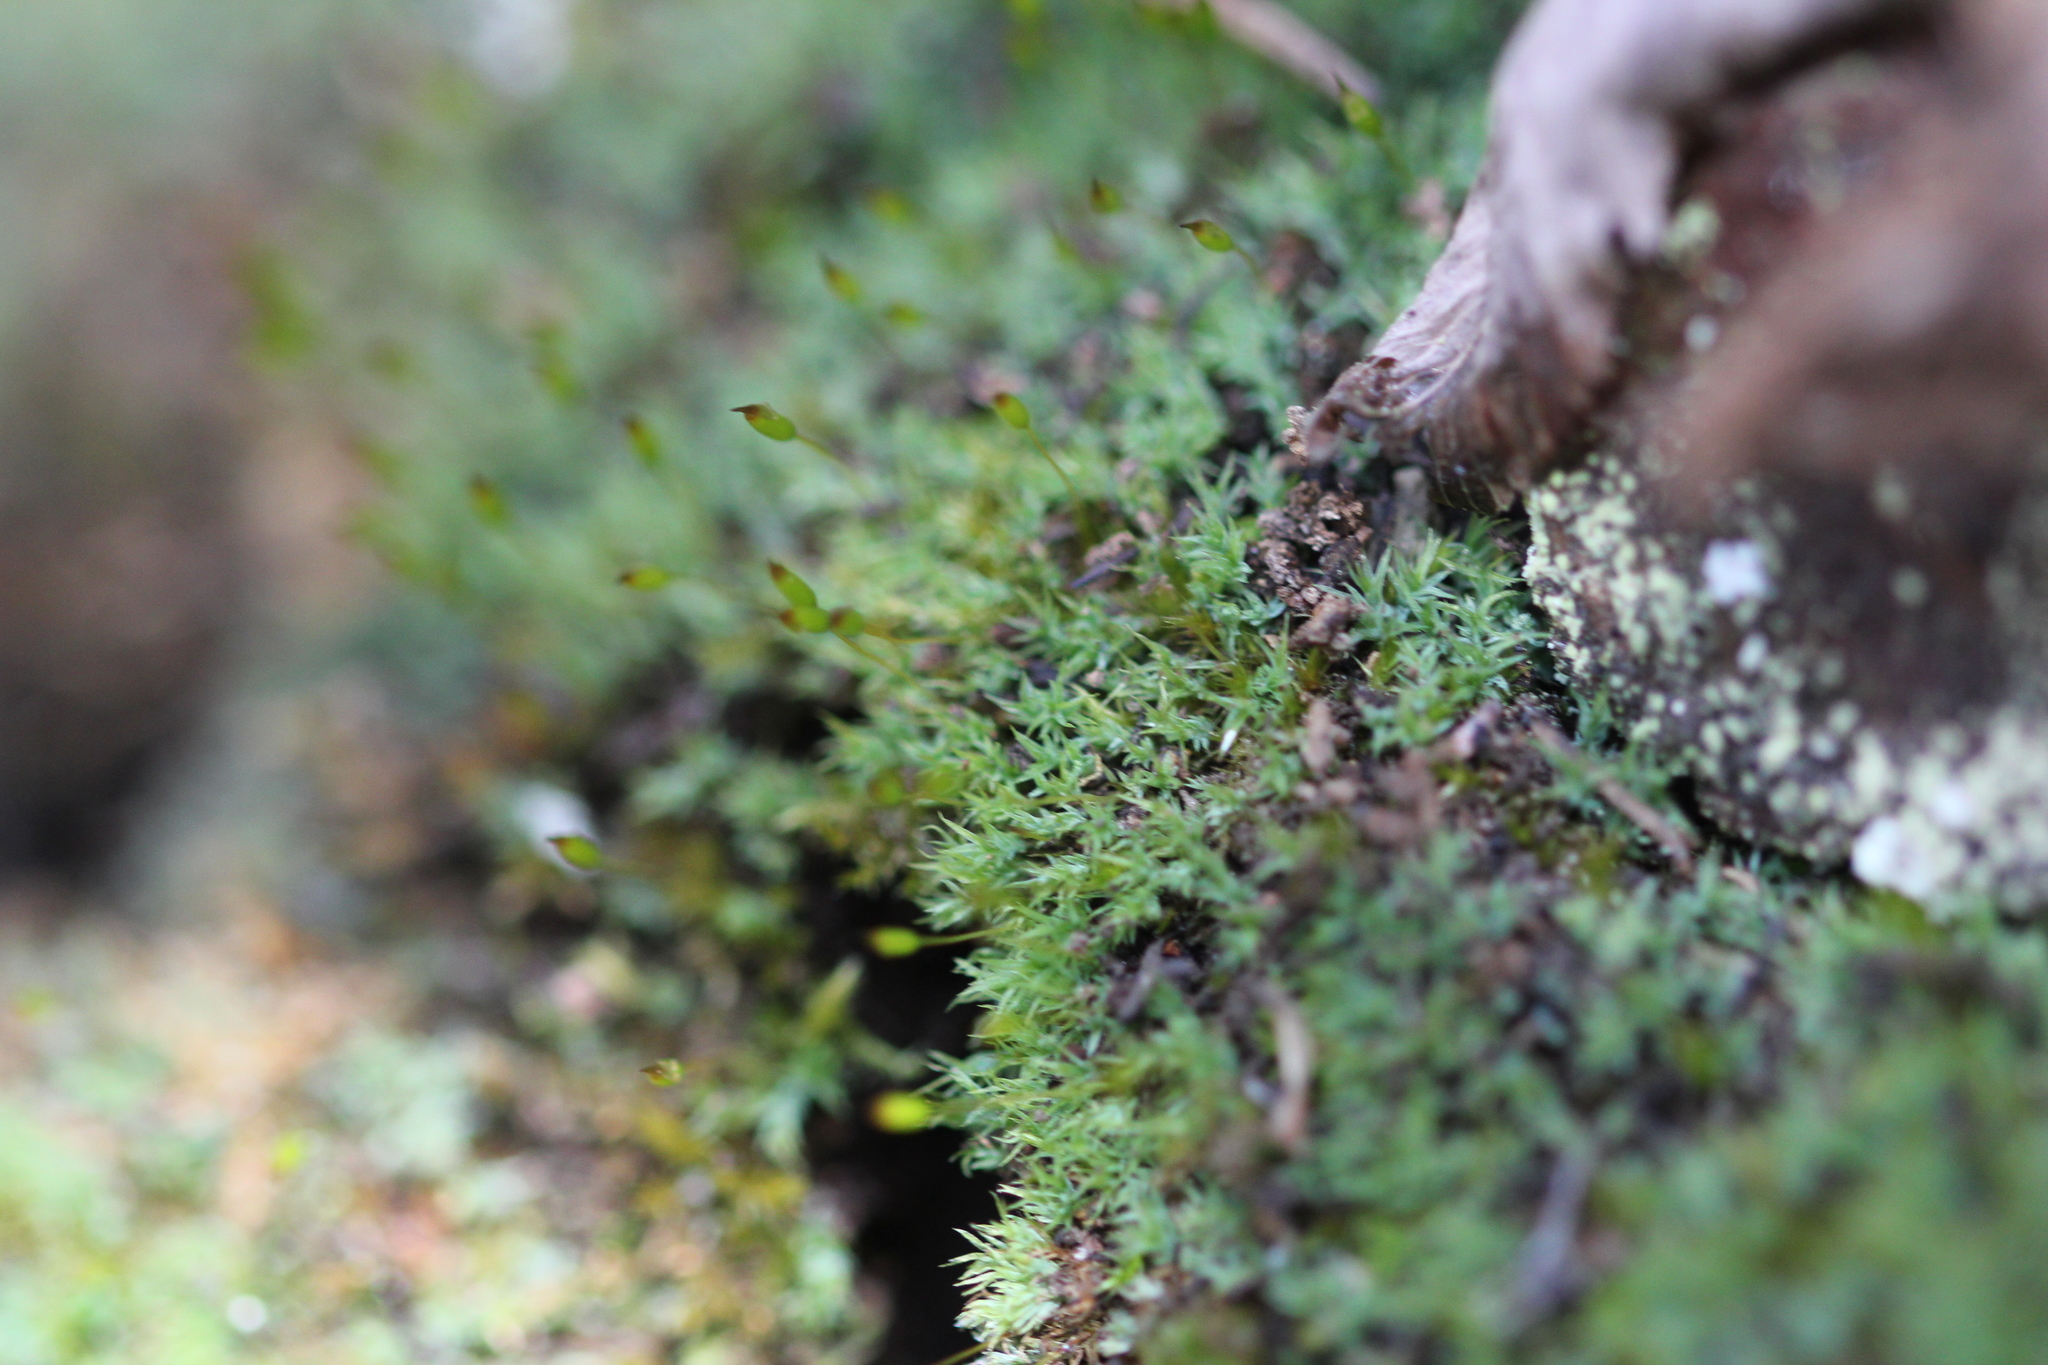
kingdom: Plantae
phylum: Bryophyta
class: Bryopsida
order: Grimmiales
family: Saelaniaceae
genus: Saelania
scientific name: Saelania glaucescens
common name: Blue dew-moss
